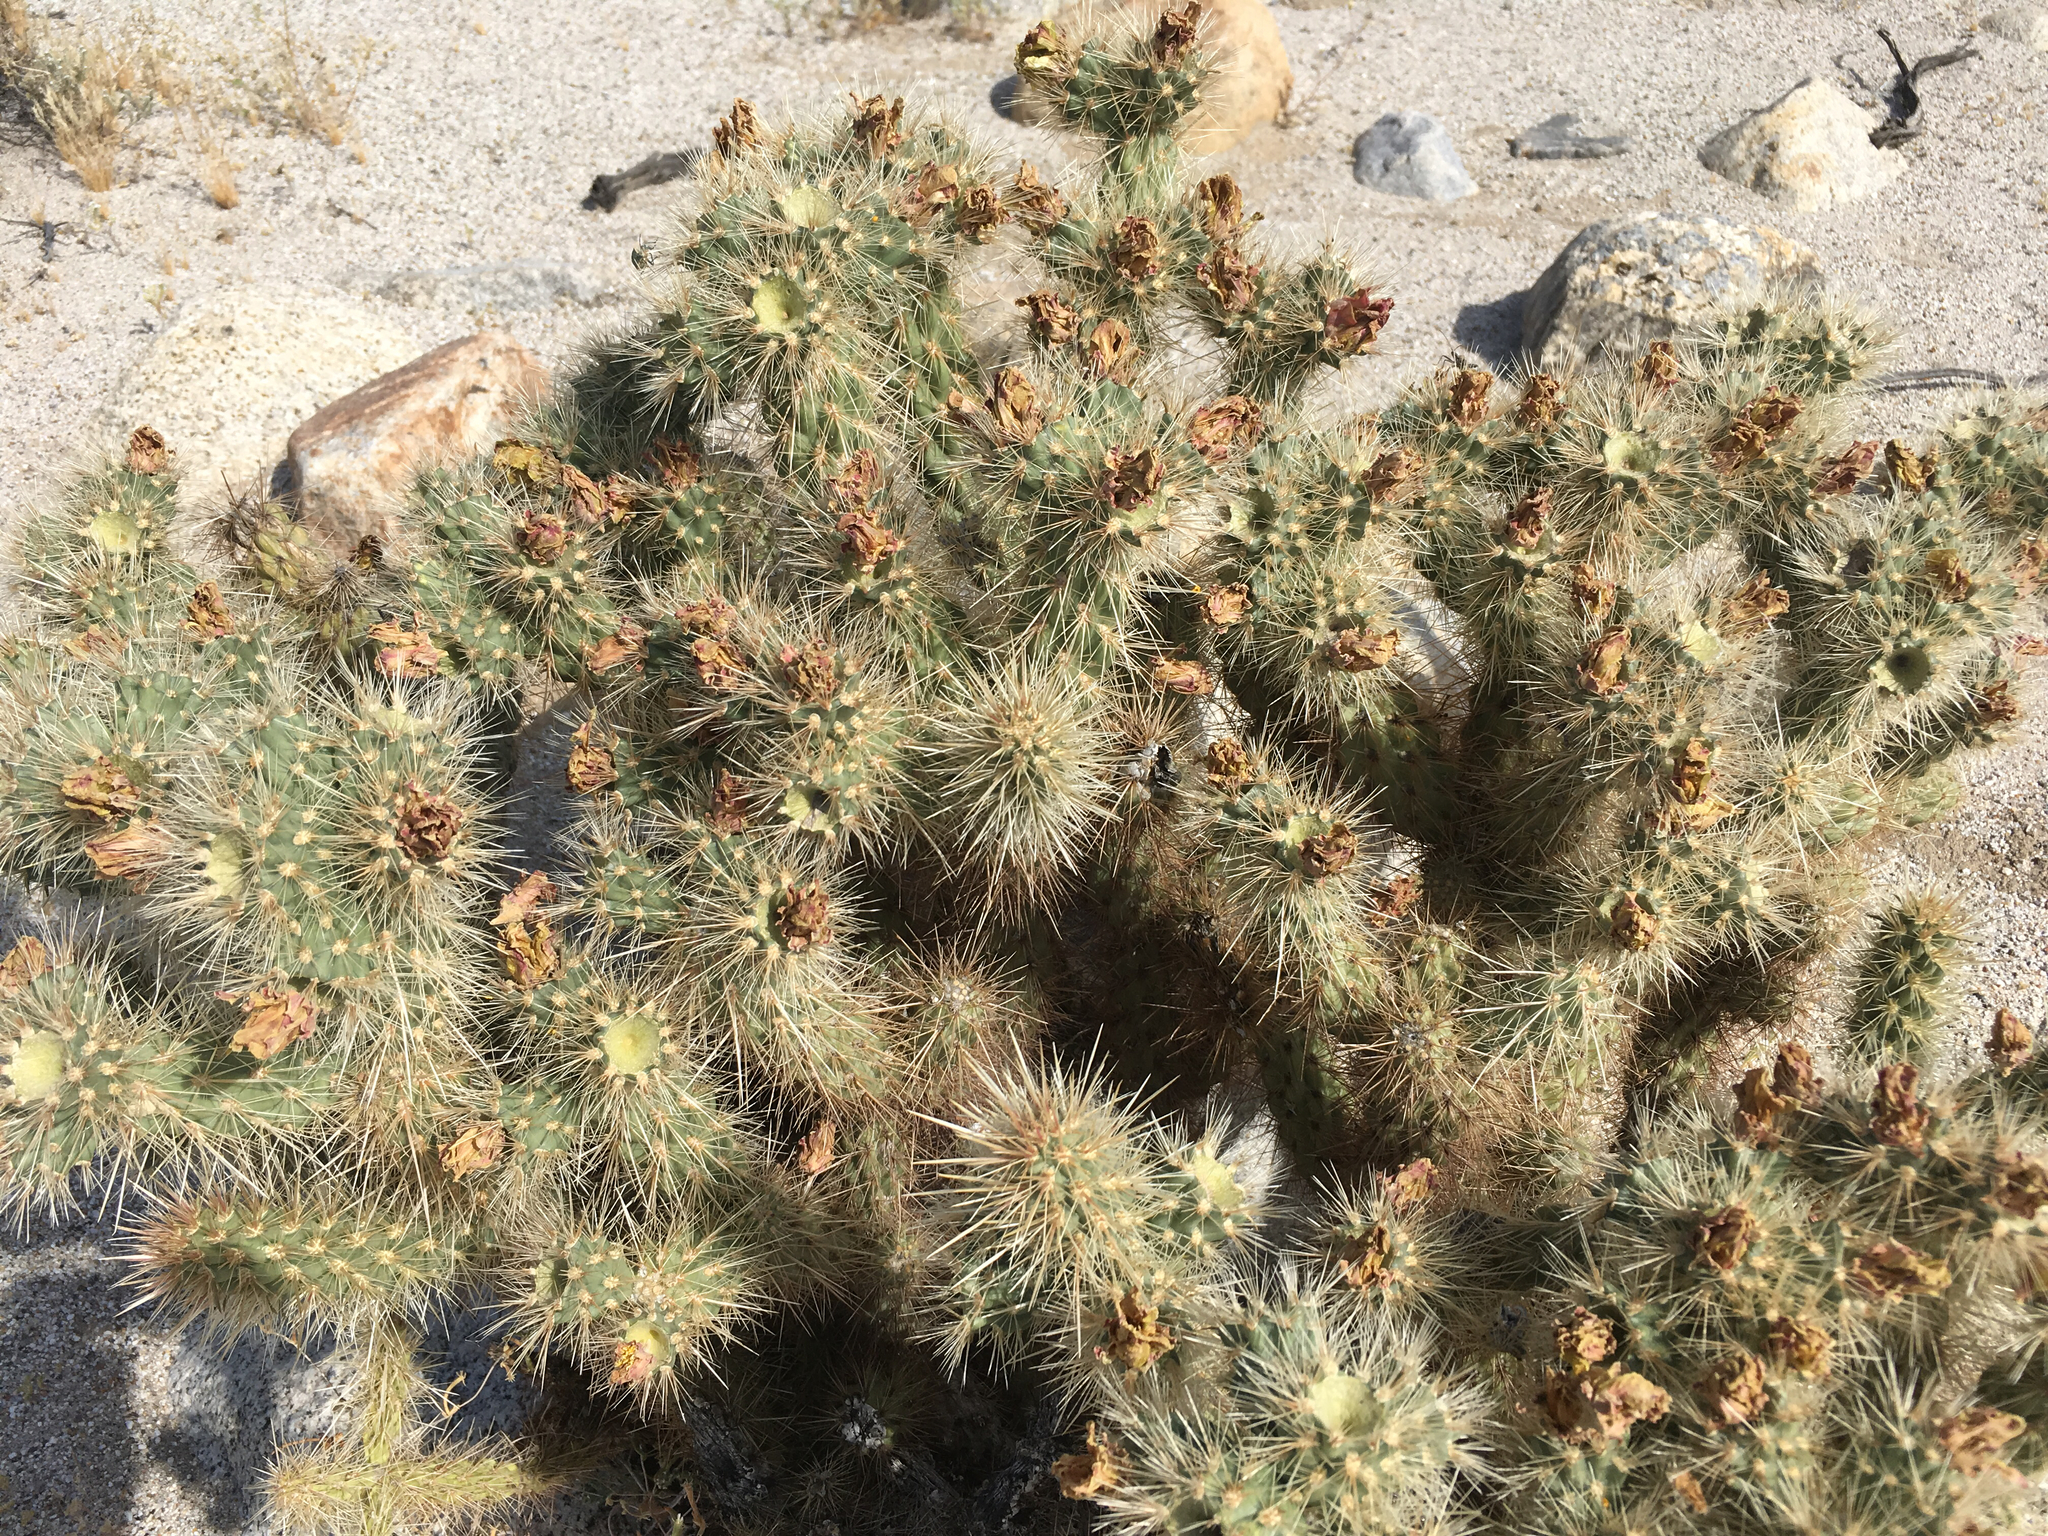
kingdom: Plantae
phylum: Tracheophyta
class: Magnoliopsida
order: Caryophyllales
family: Cactaceae
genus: Cylindropuntia
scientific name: Cylindropuntia ganderi
